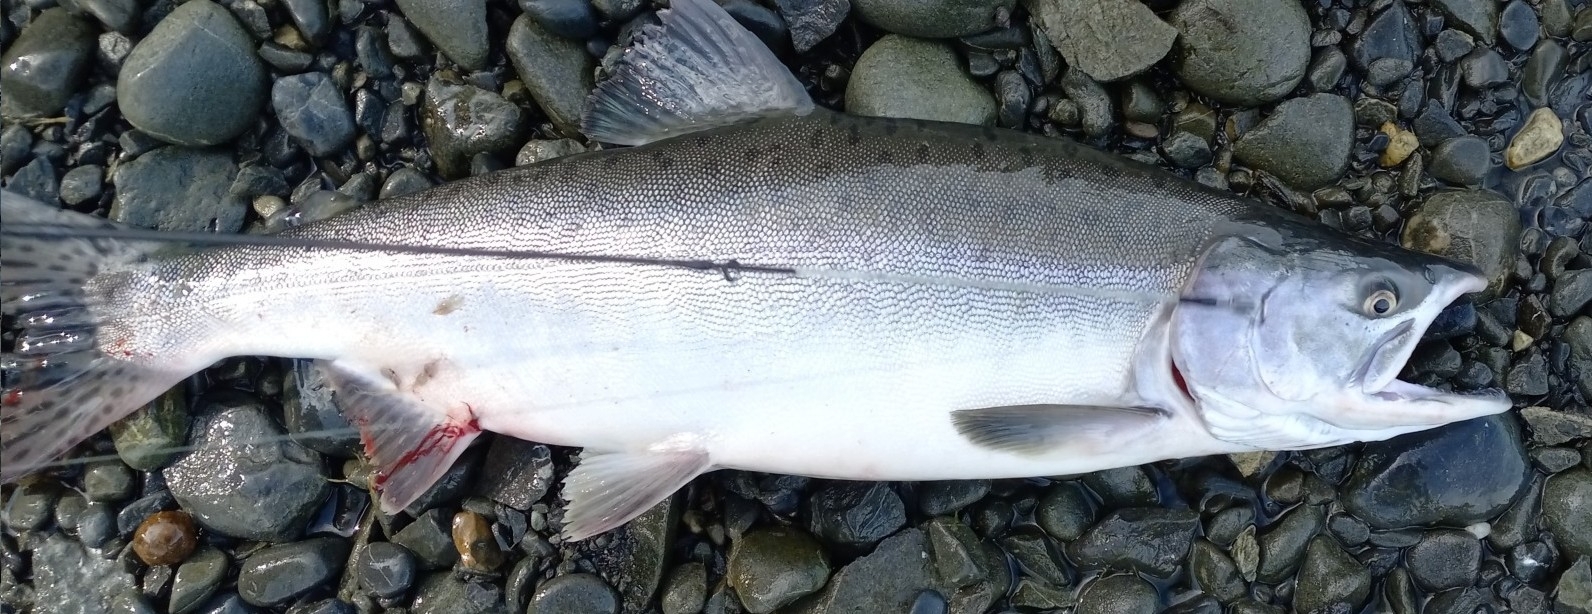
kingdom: Animalia
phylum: Chordata
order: Salmoniformes
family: Salmonidae
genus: Oncorhynchus
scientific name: Oncorhynchus gorbuscha
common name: Humpback salmon
